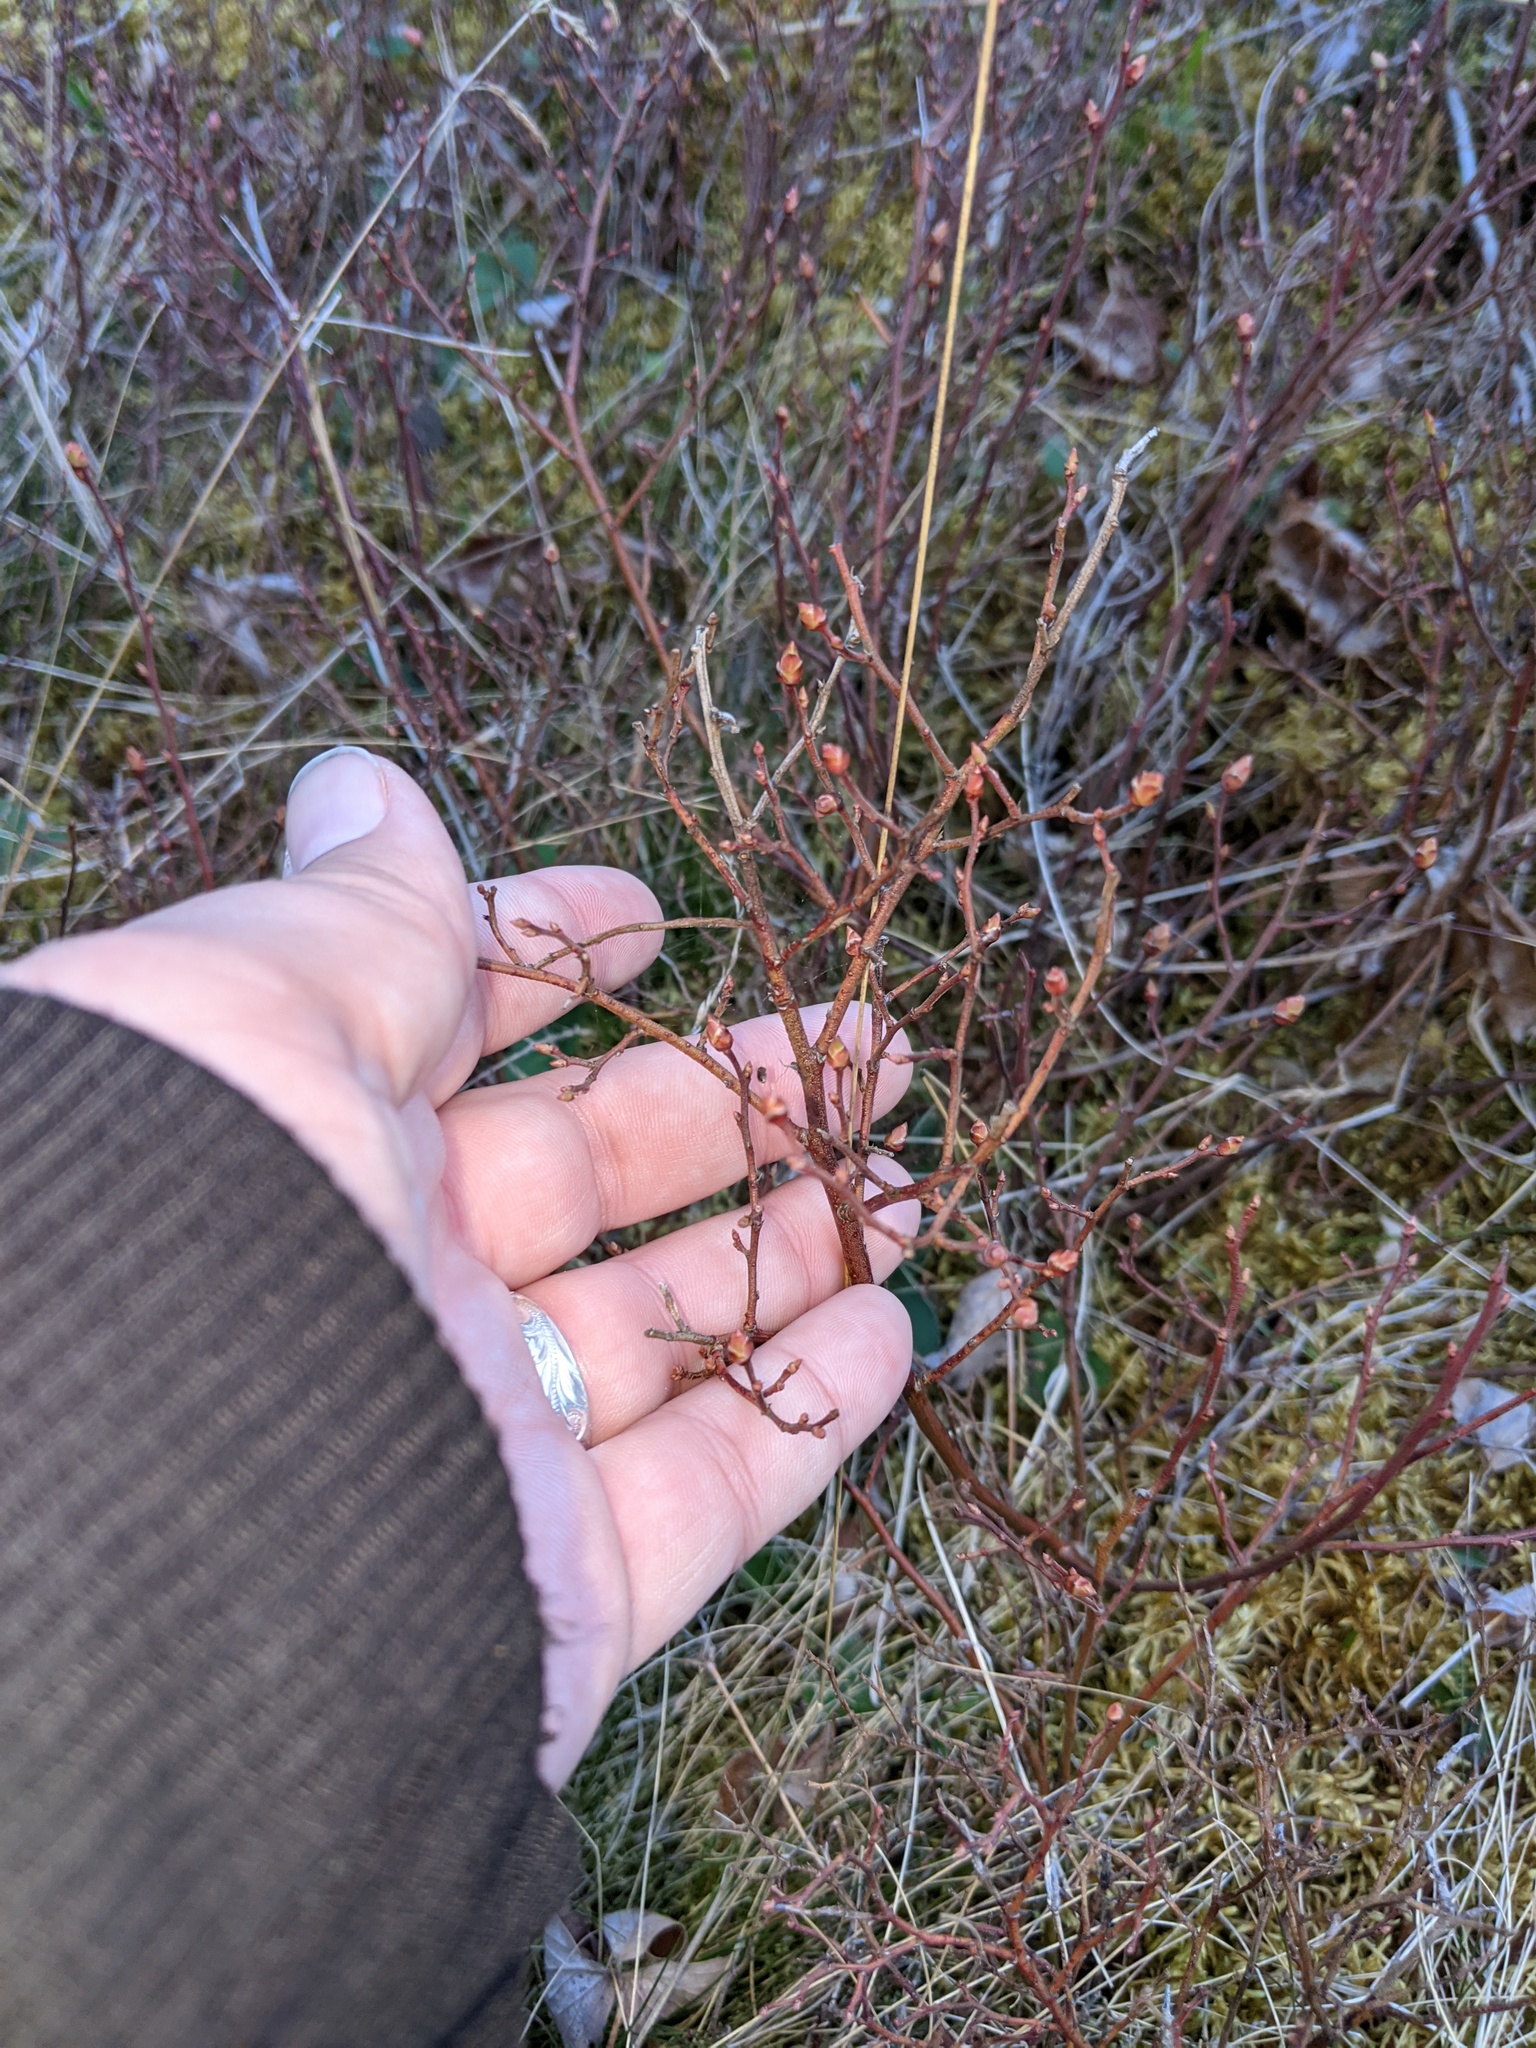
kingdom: Plantae
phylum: Tracheophyta
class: Magnoliopsida
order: Ericales
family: Ericaceae
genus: Vaccinium
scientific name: Vaccinium angustifolium
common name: Early lowbush blueberry
